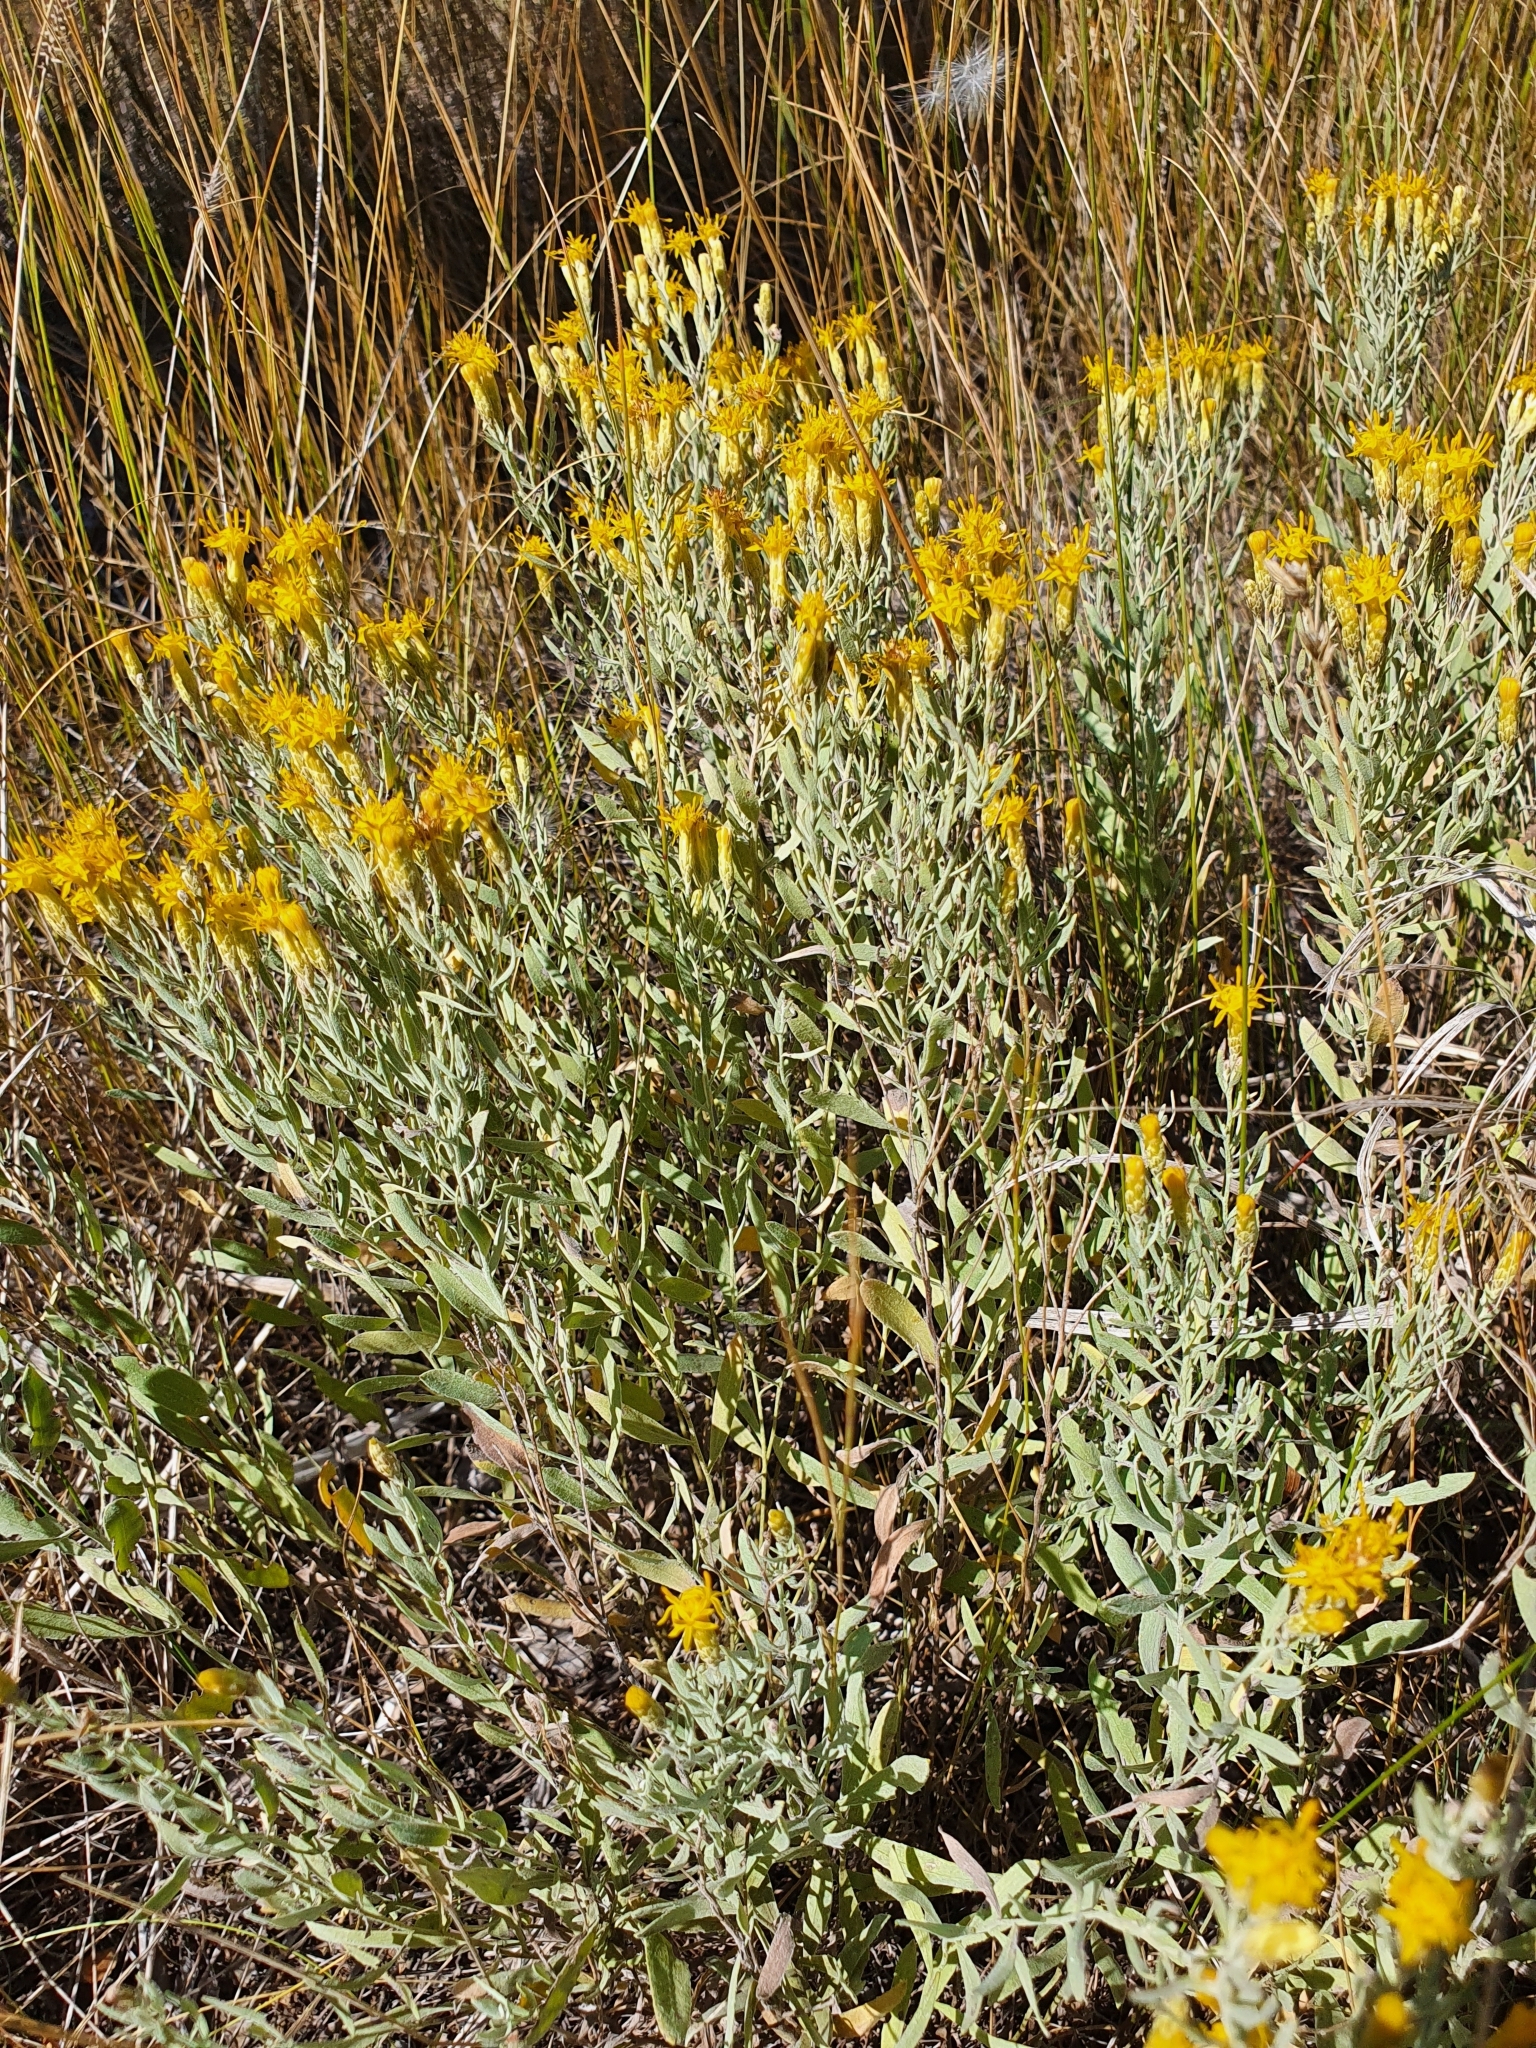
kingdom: Plantae
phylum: Tracheophyta
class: Magnoliopsida
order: Asterales
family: Asteraceae
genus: Galatella
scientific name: Galatella villosa
